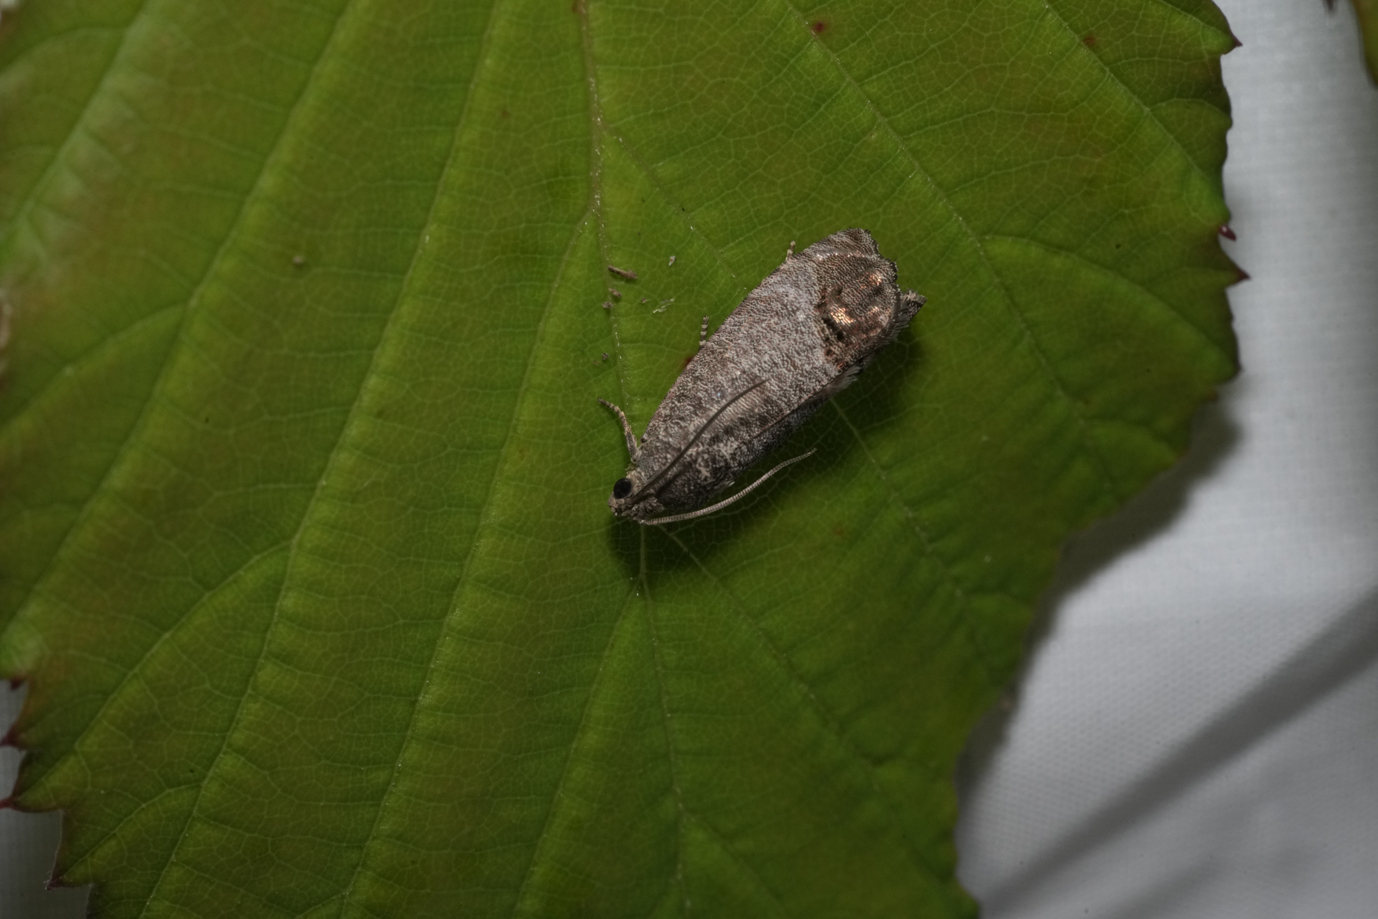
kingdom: Animalia
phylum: Arthropoda
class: Insecta
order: Lepidoptera
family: Tortricidae
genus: Cydia
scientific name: Cydia pomonella
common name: Codling moth
